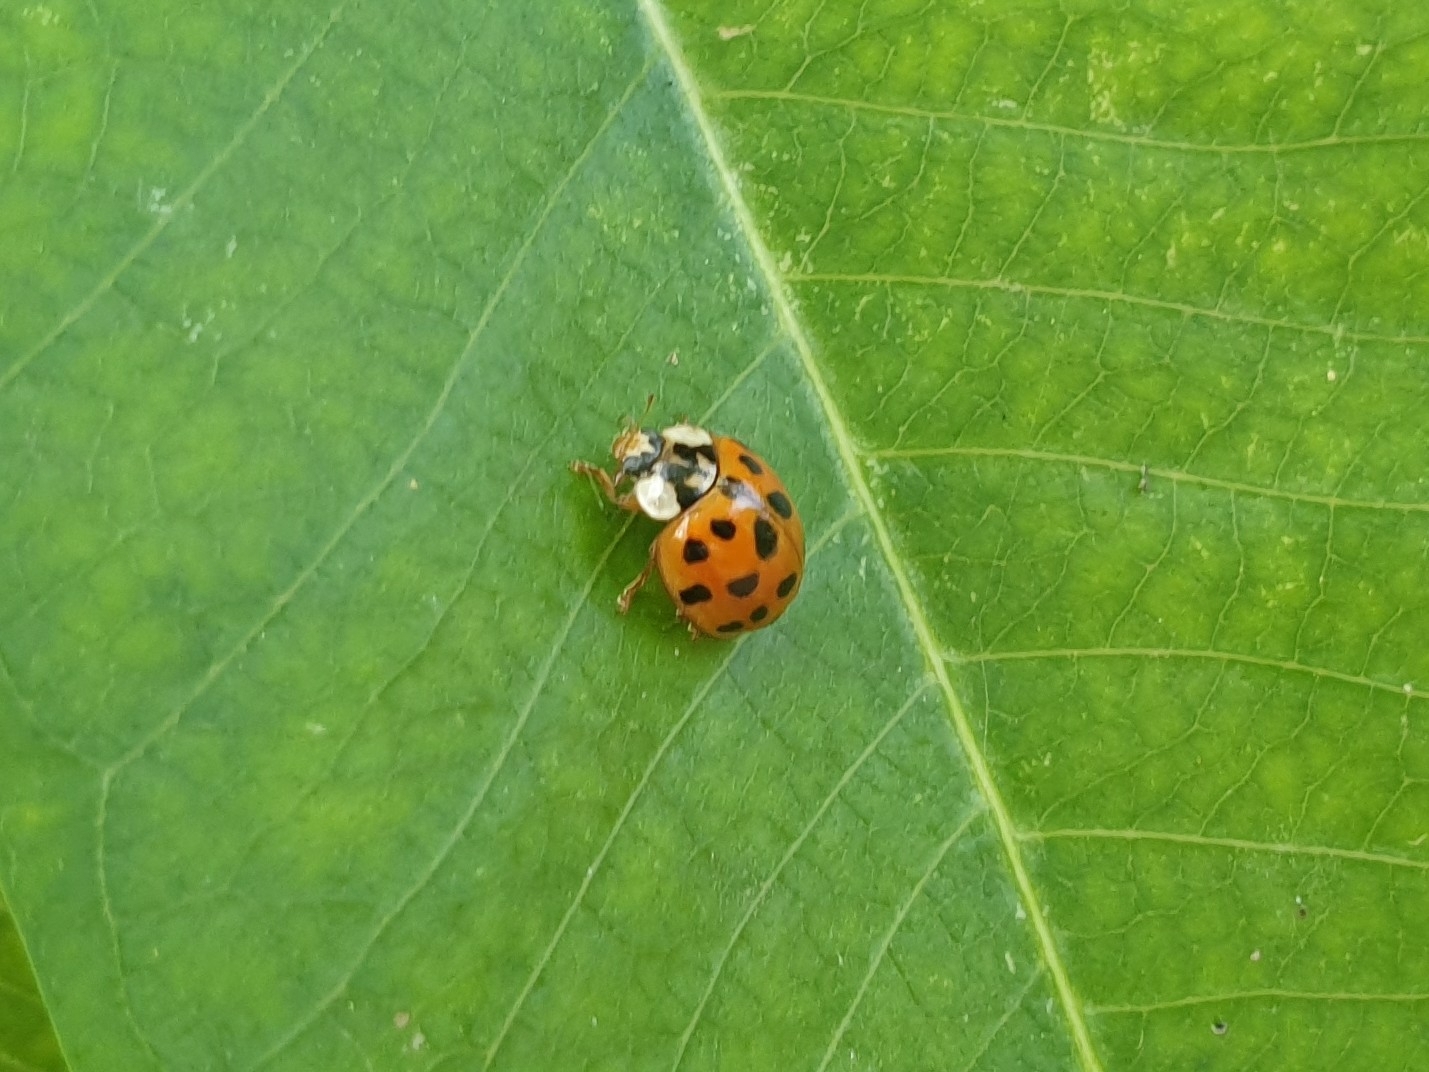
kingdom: Animalia
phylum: Arthropoda
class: Insecta
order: Coleoptera
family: Coccinellidae
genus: Harmonia
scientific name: Harmonia axyridis
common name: Harlequin ladybird
